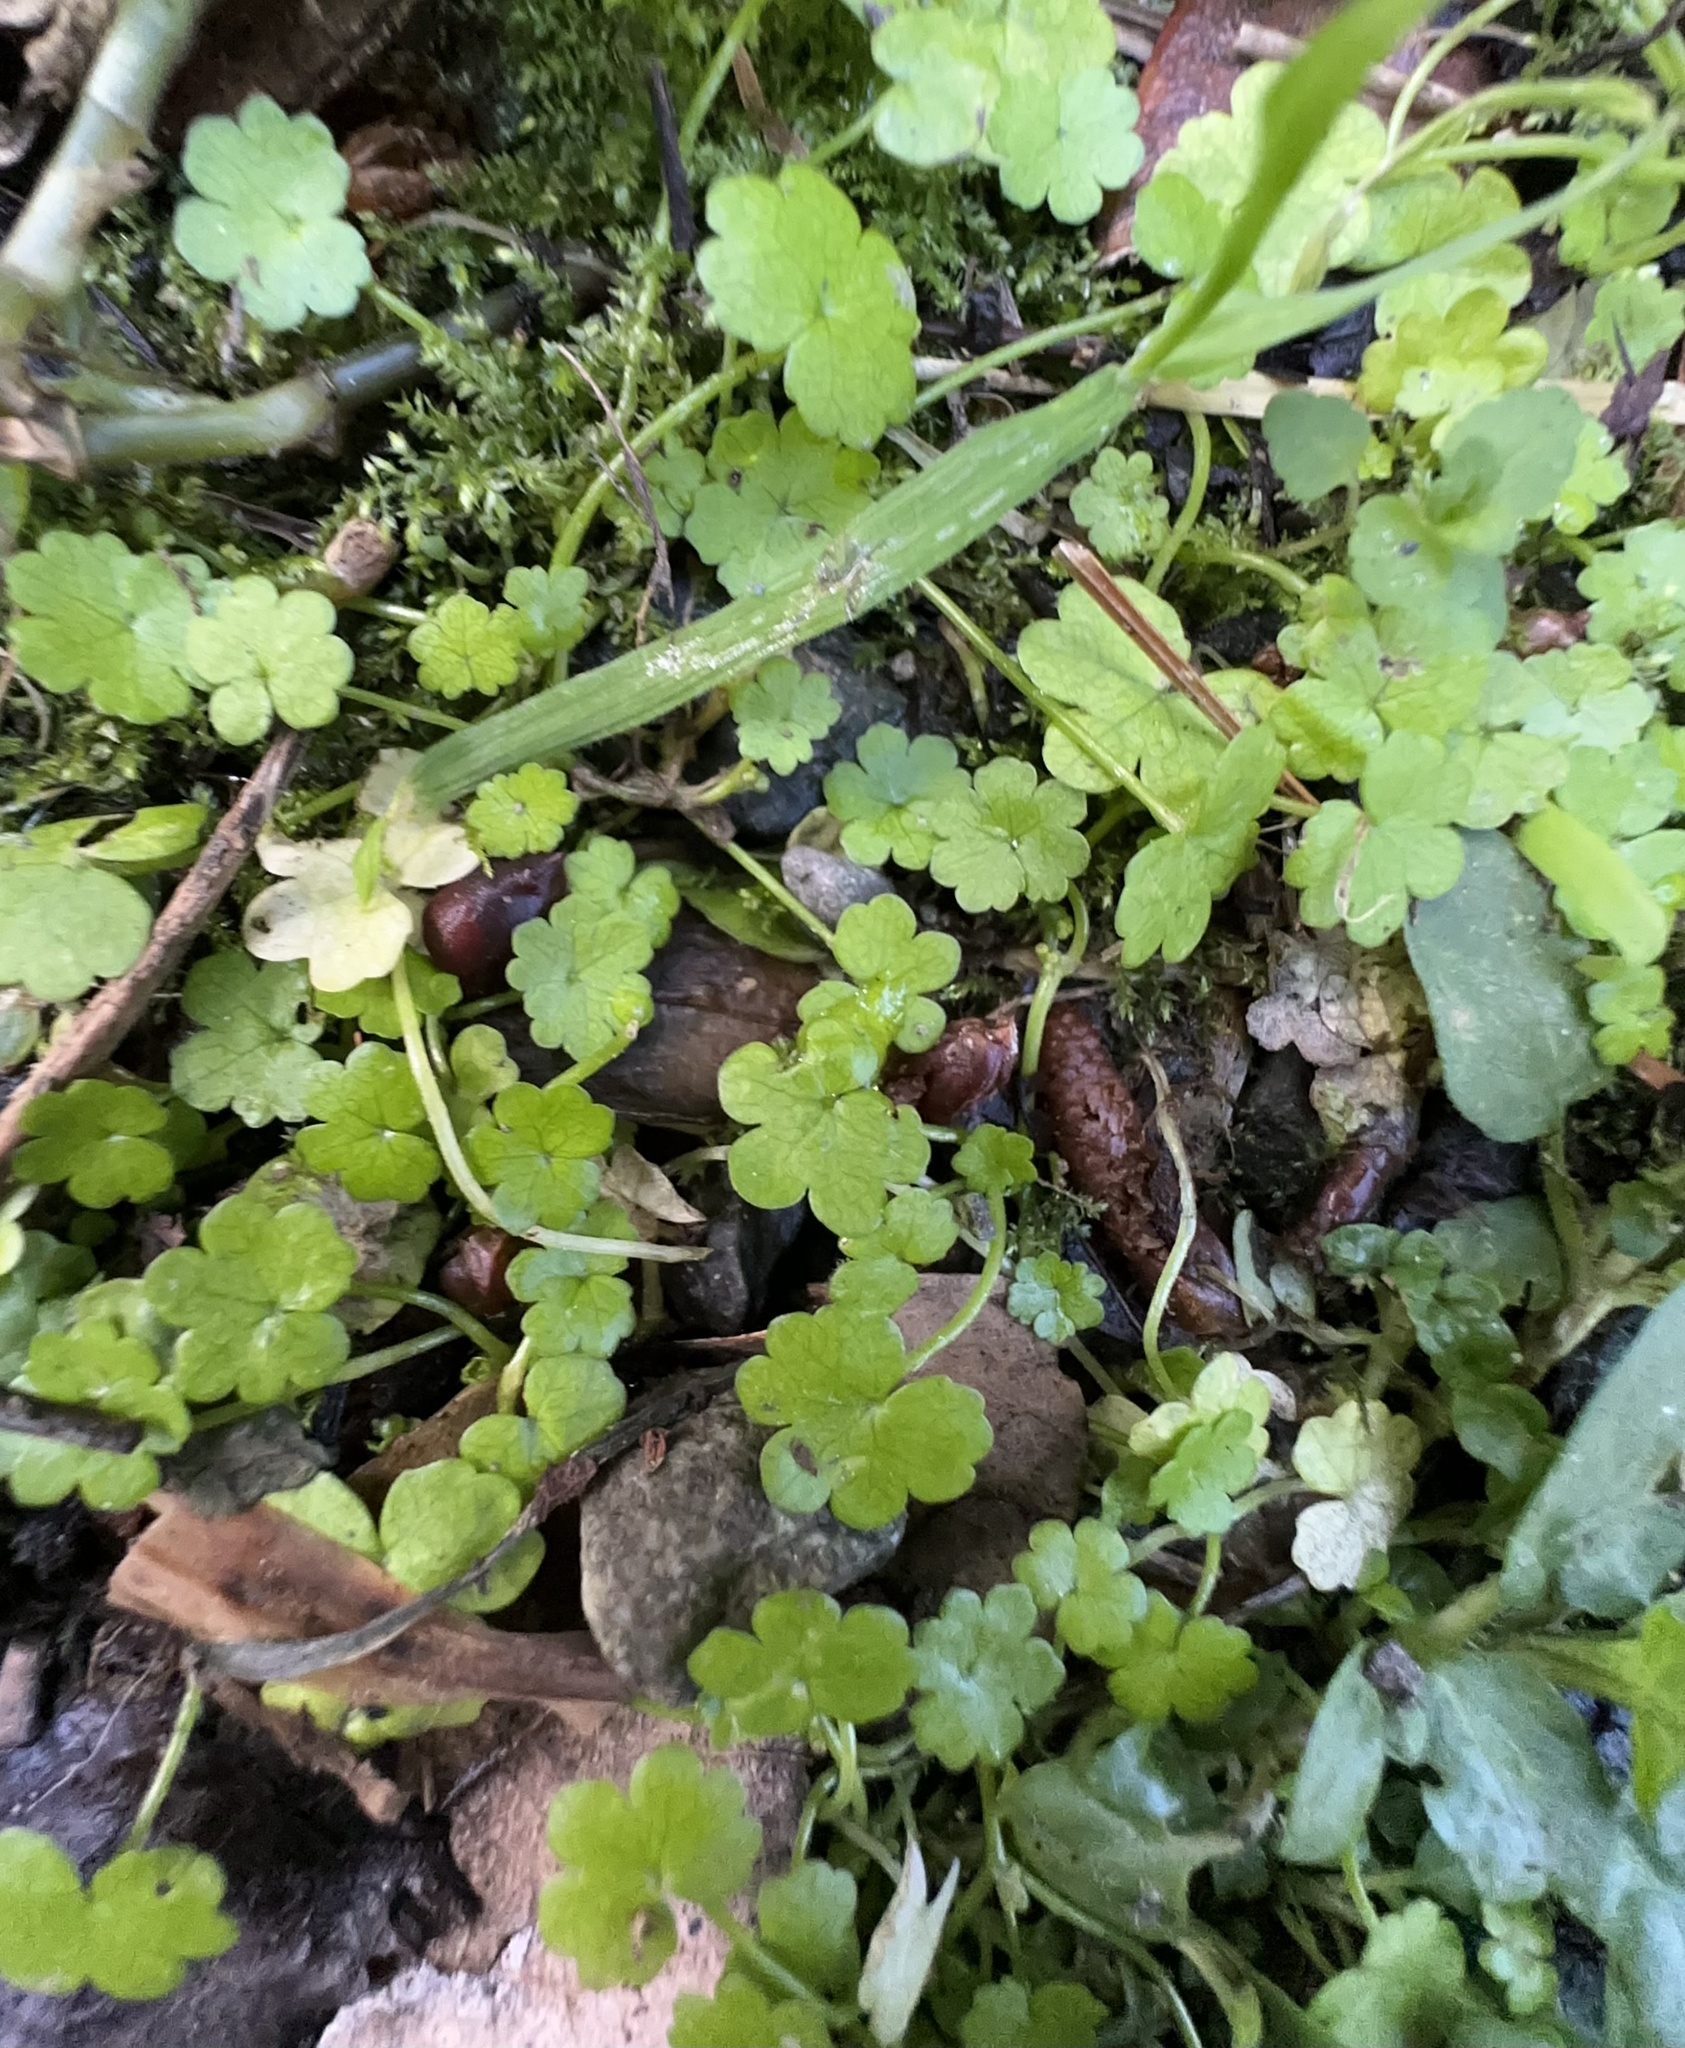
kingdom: Plantae
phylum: Tracheophyta
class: Magnoliopsida
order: Apiales
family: Araliaceae
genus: Hydrocotyle
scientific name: Hydrocotyle heteromeria
